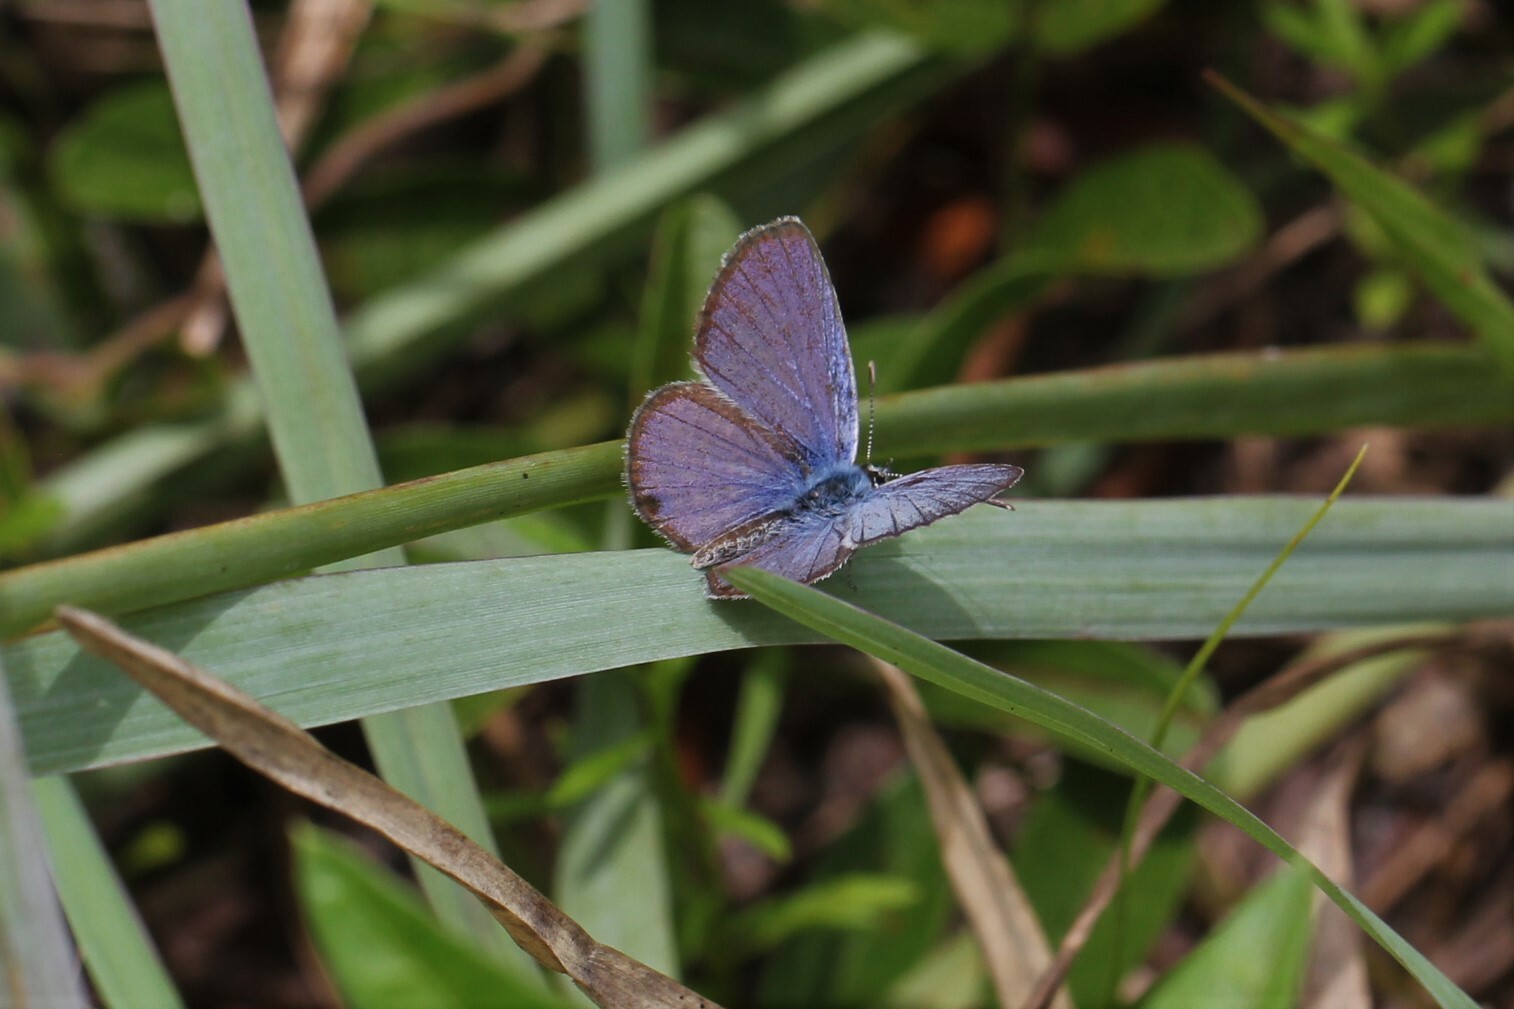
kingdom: Animalia
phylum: Arthropoda
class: Insecta
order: Lepidoptera
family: Lycaenidae
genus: Hemiargus
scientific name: Hemiargus ceraunus
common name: Ceraunus blue
